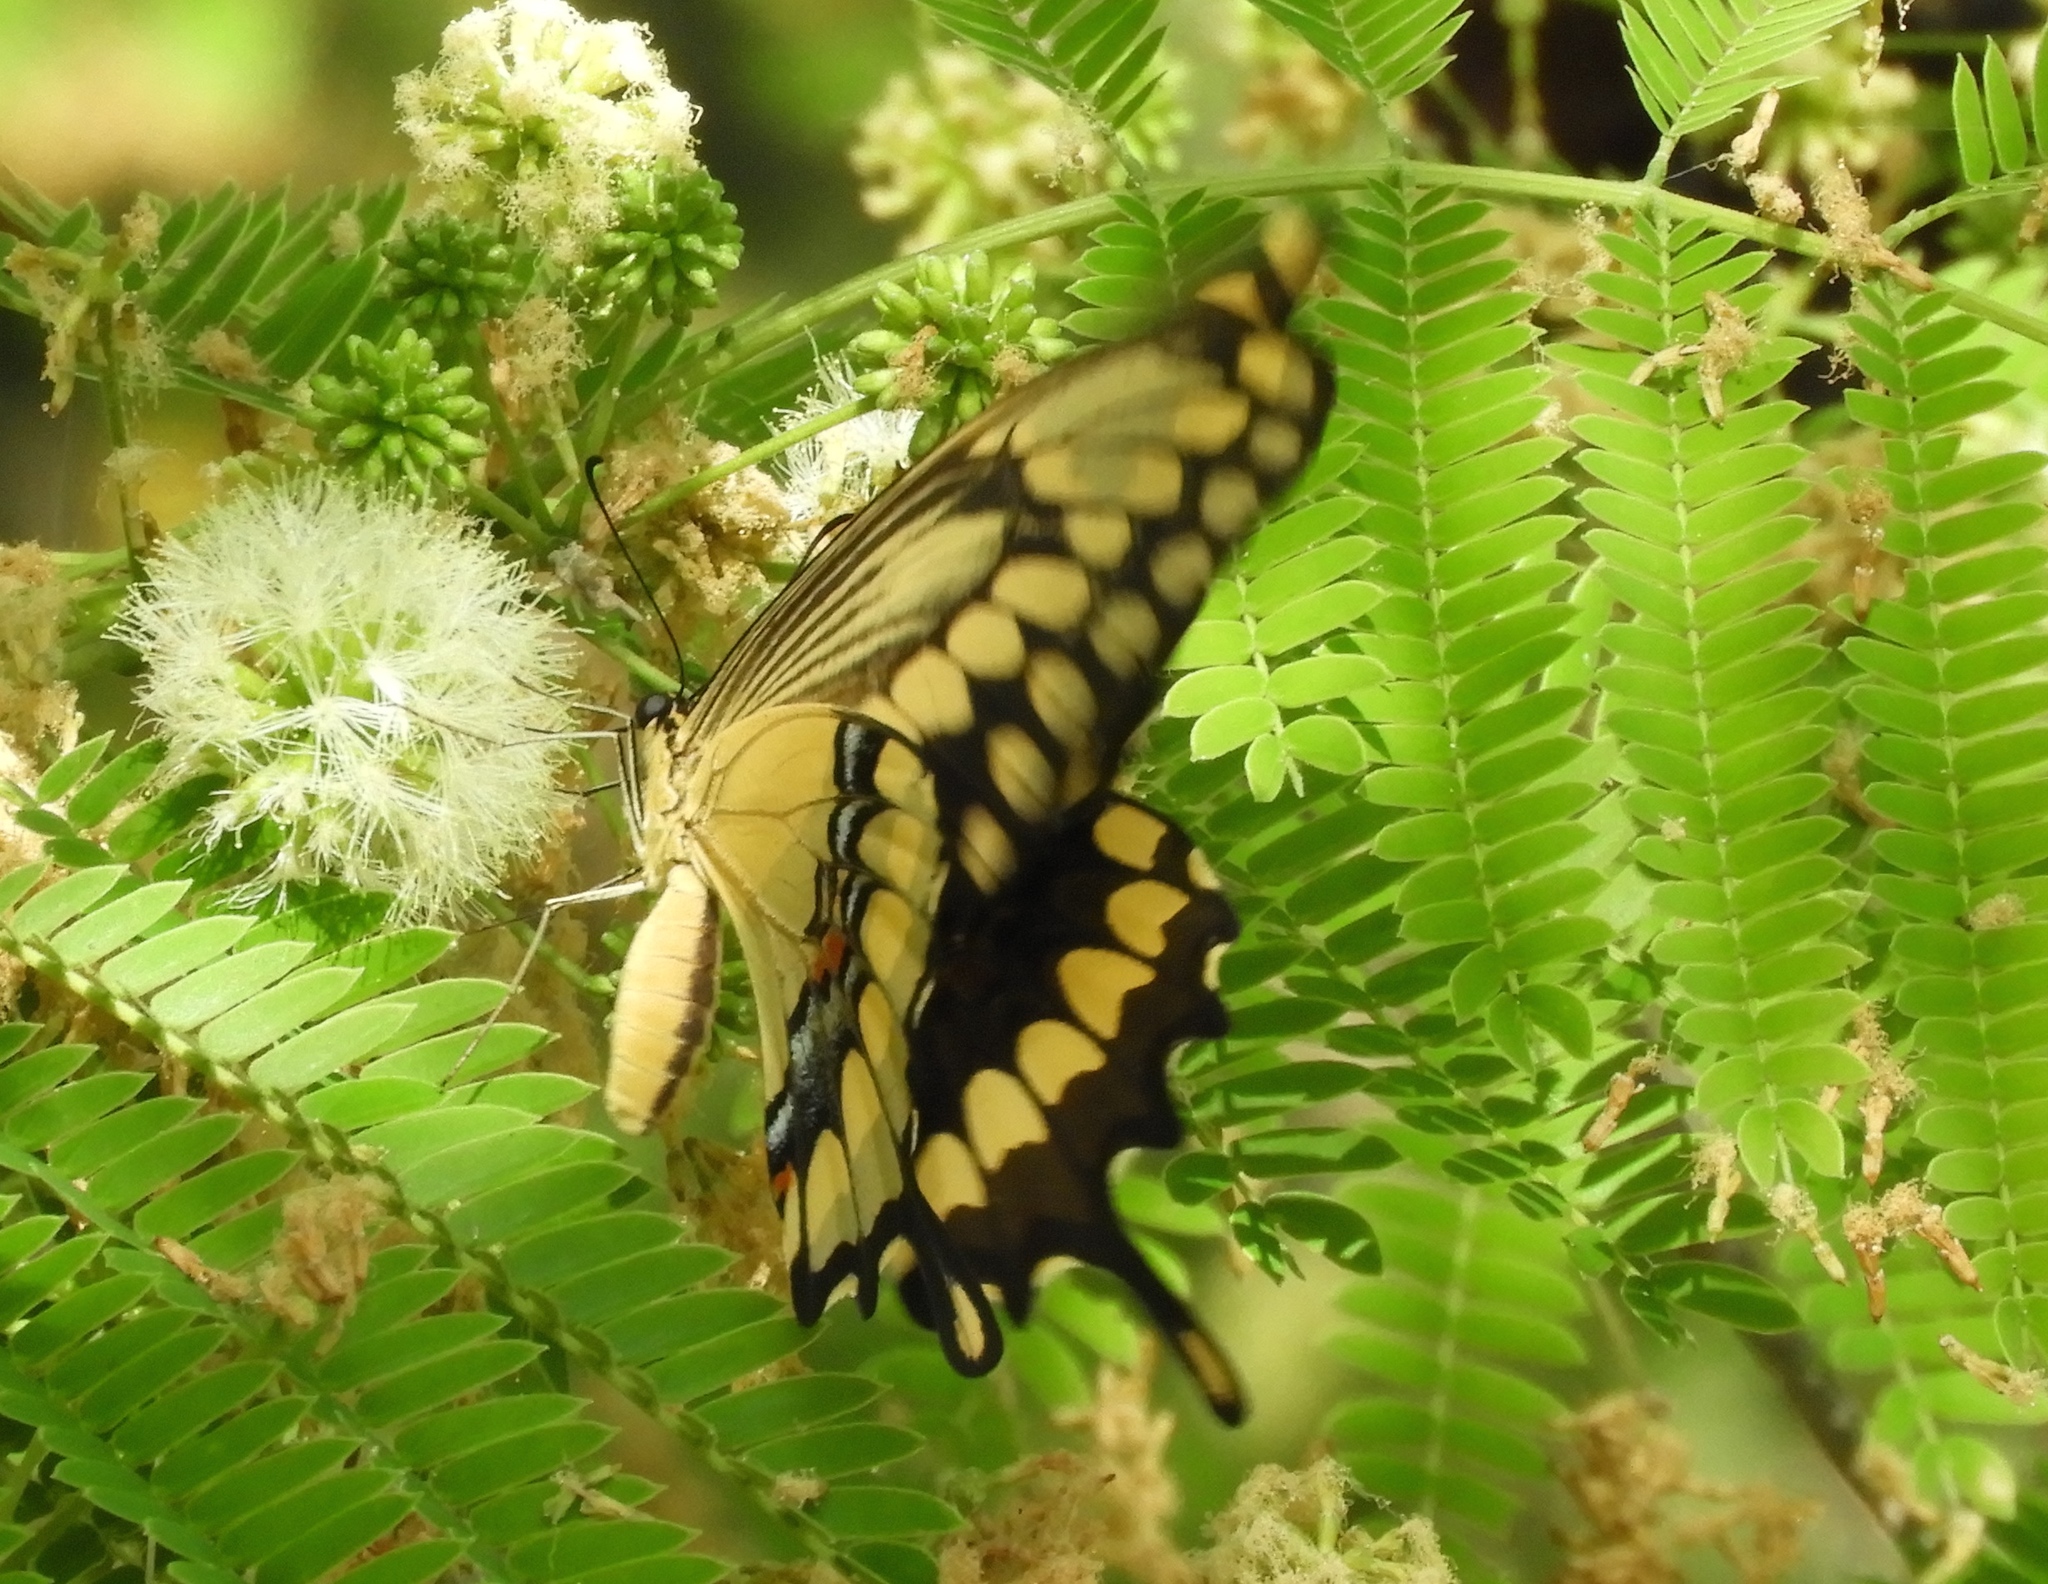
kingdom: Animalia
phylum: Arthropoda
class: Insecta
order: Lepidoptera
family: Papilionidae
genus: Papilio
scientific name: Papilio rumiko
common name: Western giant swallowtail
